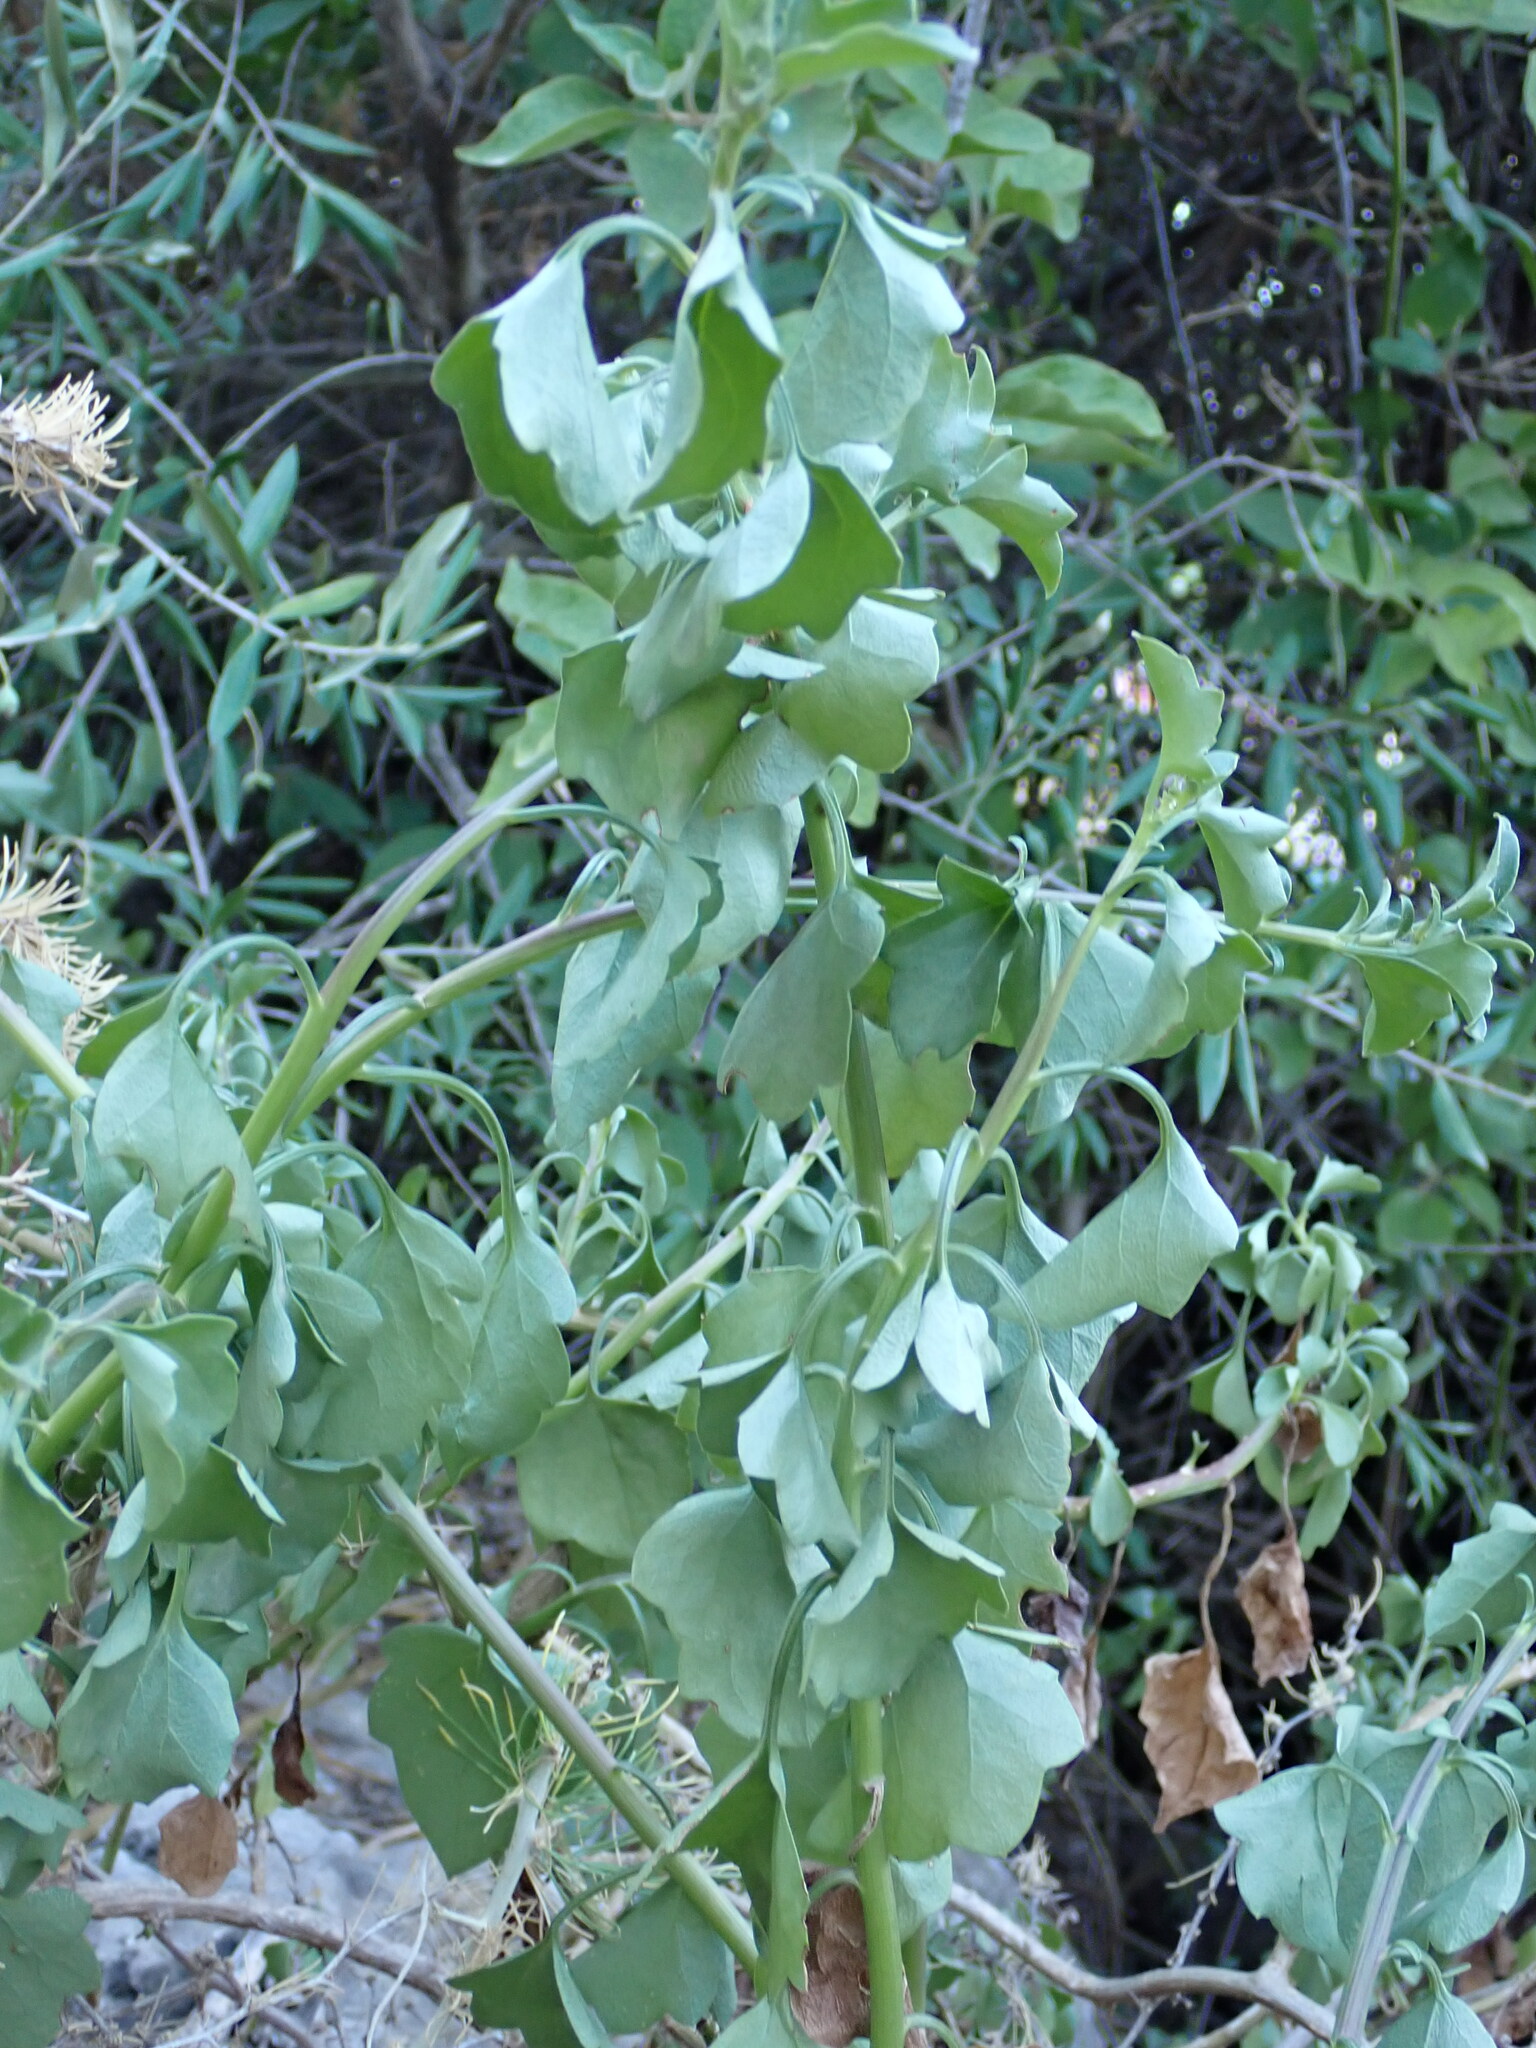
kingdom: Plantae
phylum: Tracheophyta
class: Magnoliopsida
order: Asterales
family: Asteraceae
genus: Senecio
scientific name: Senecio angulatus
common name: Climbing groundsel
